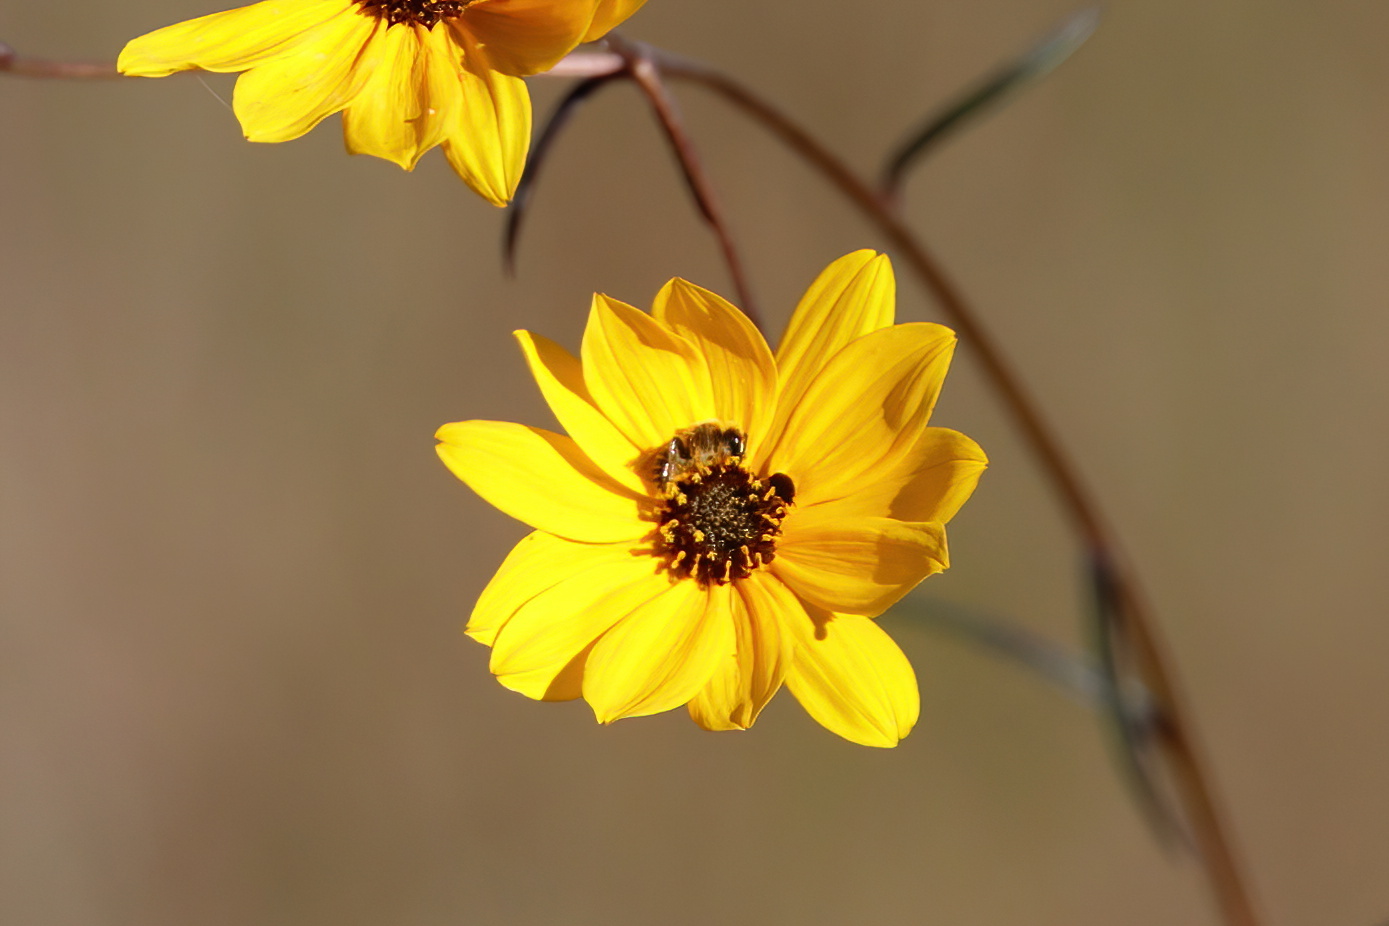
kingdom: Animalia
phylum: Arthropoda
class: Insecta
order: Hymenoptera
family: Andrenidae
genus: Andrena
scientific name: Andrena accepta
